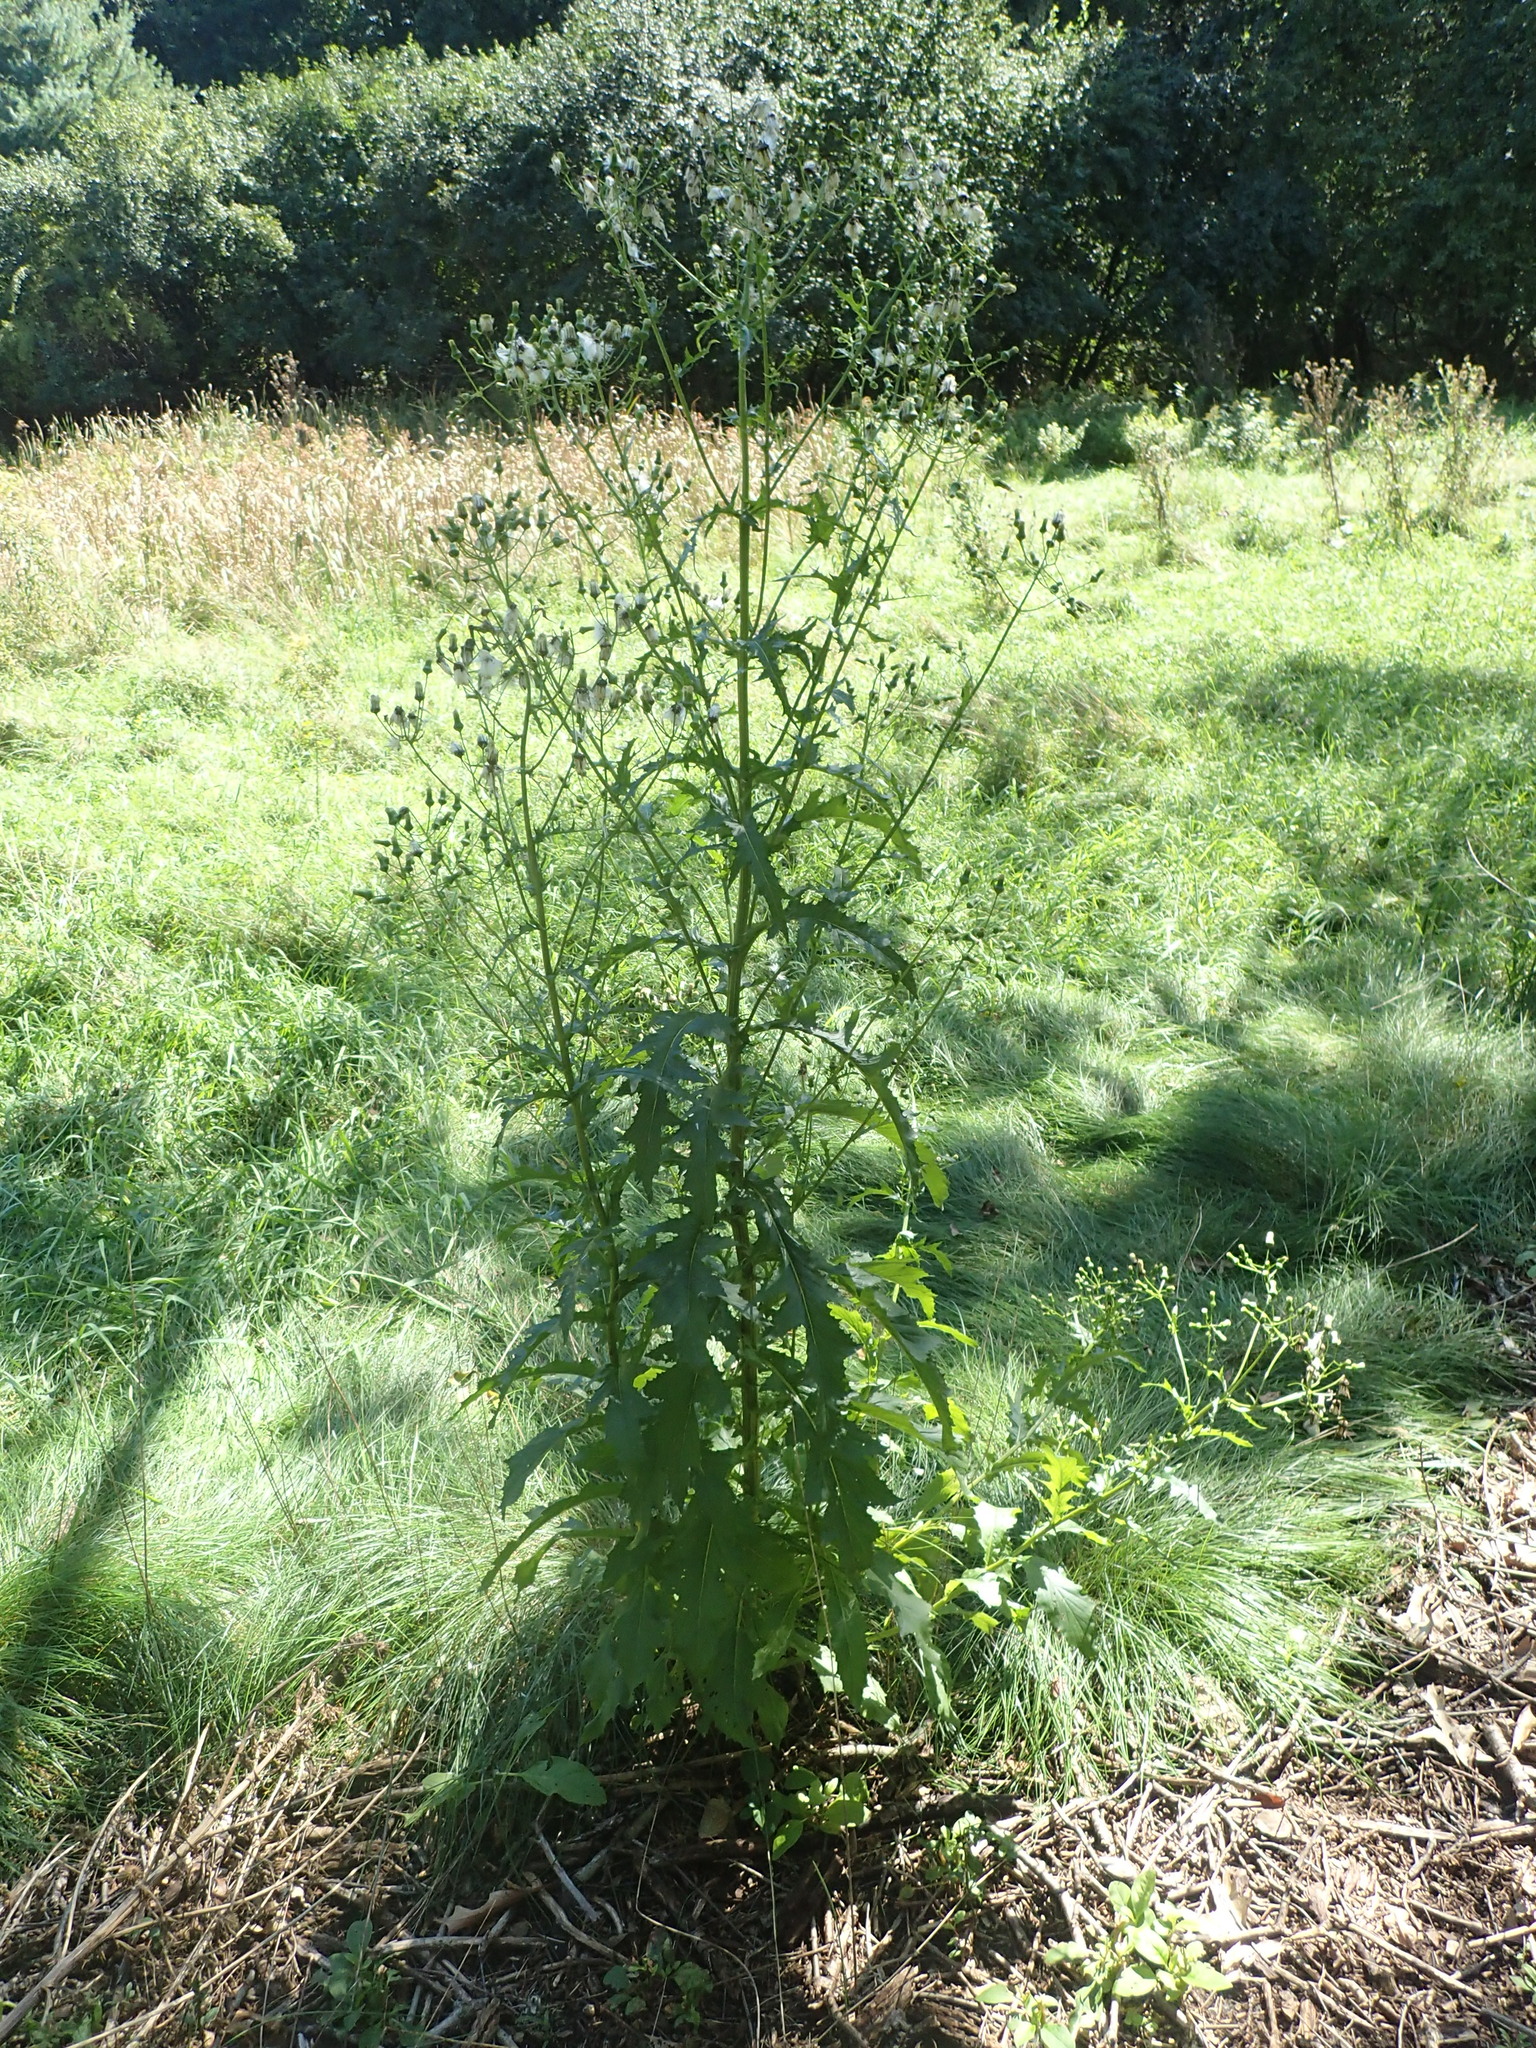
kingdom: Plantae
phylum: Tracheophyta
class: Magnoliopsida
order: Asterales
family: Asteraceae
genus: Erechtites
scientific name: Erechtites hieraciifolius
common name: American burnweed
